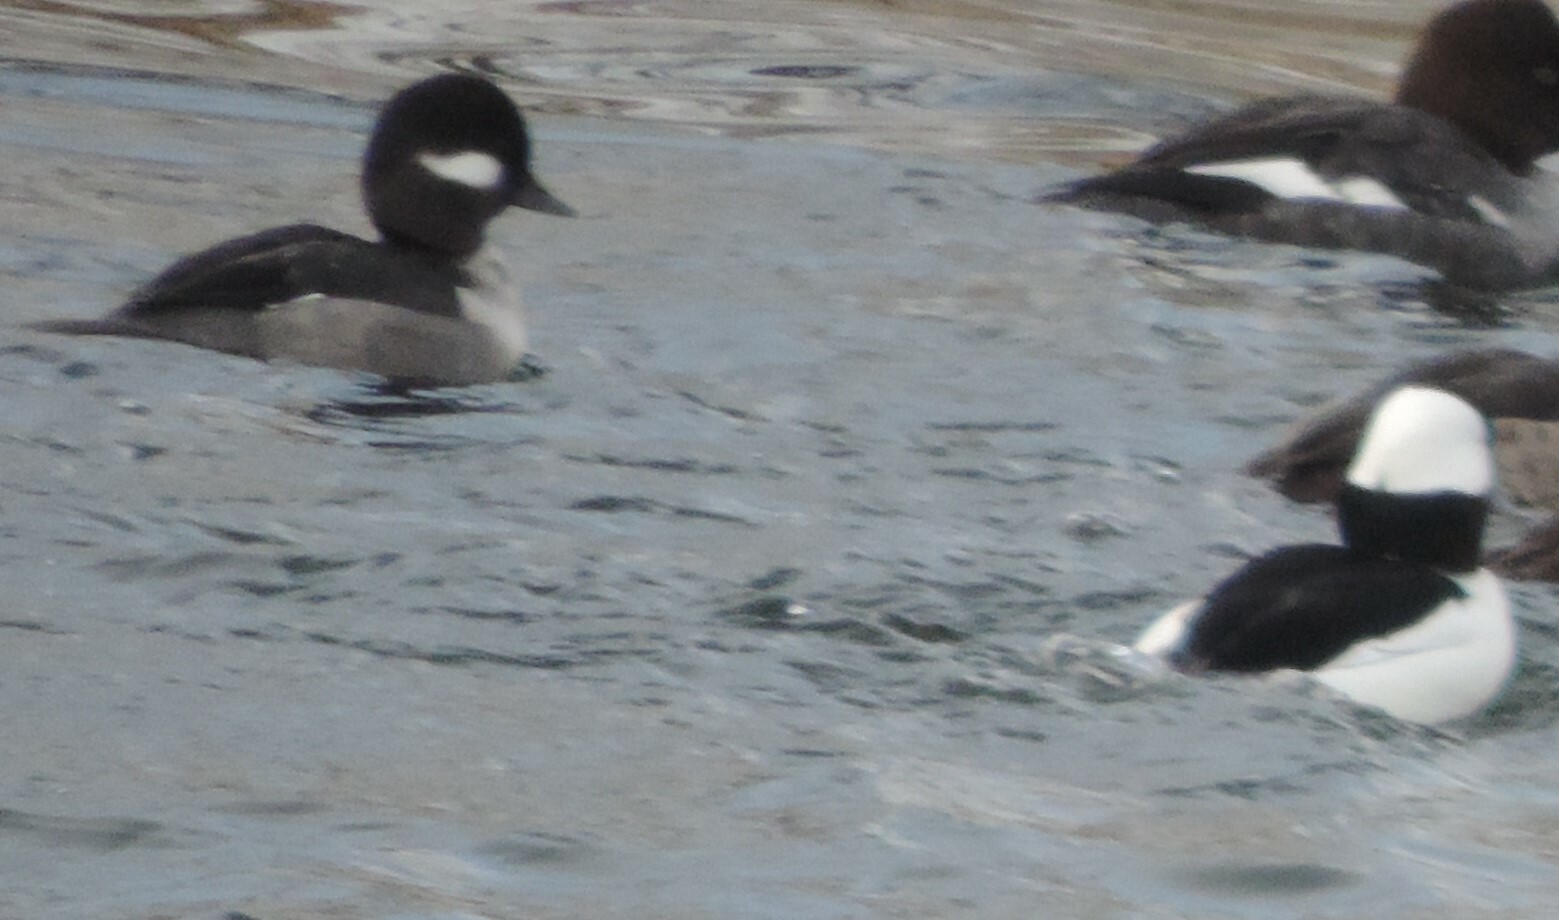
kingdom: Animalia
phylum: Chordata
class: Aves
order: Anseriformes
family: Anatidae
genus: Bucephala
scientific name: Bucephala albeola
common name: Bufflehead
